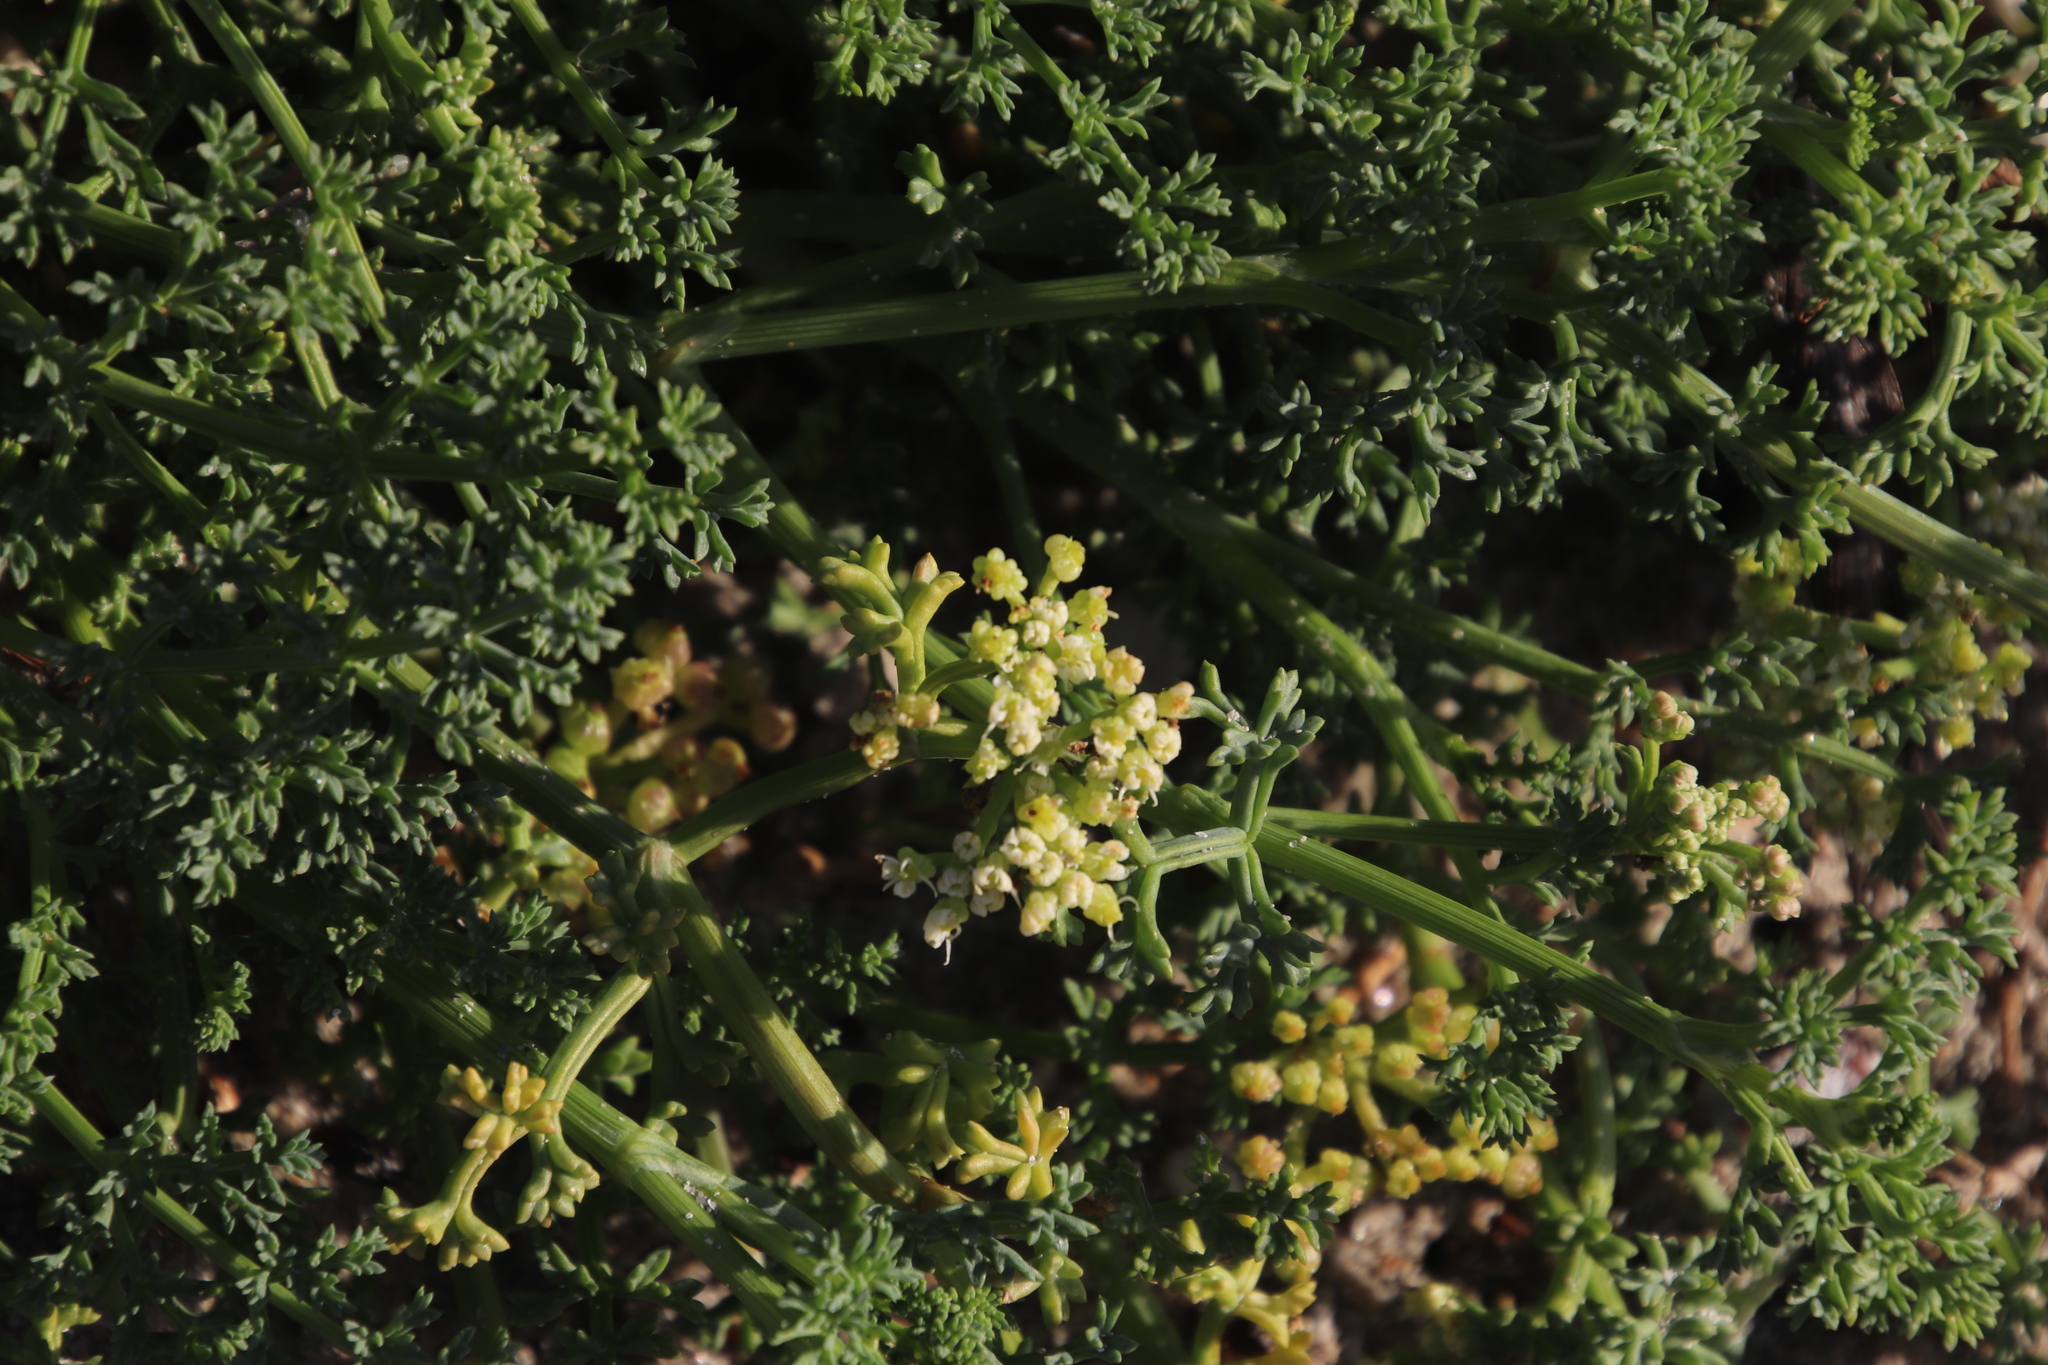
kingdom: Plantae
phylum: Tracheophyta
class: Magnoliopsida
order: Apiales
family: Apiaceae
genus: Dasispermum
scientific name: Dasispermum suffruticosum
